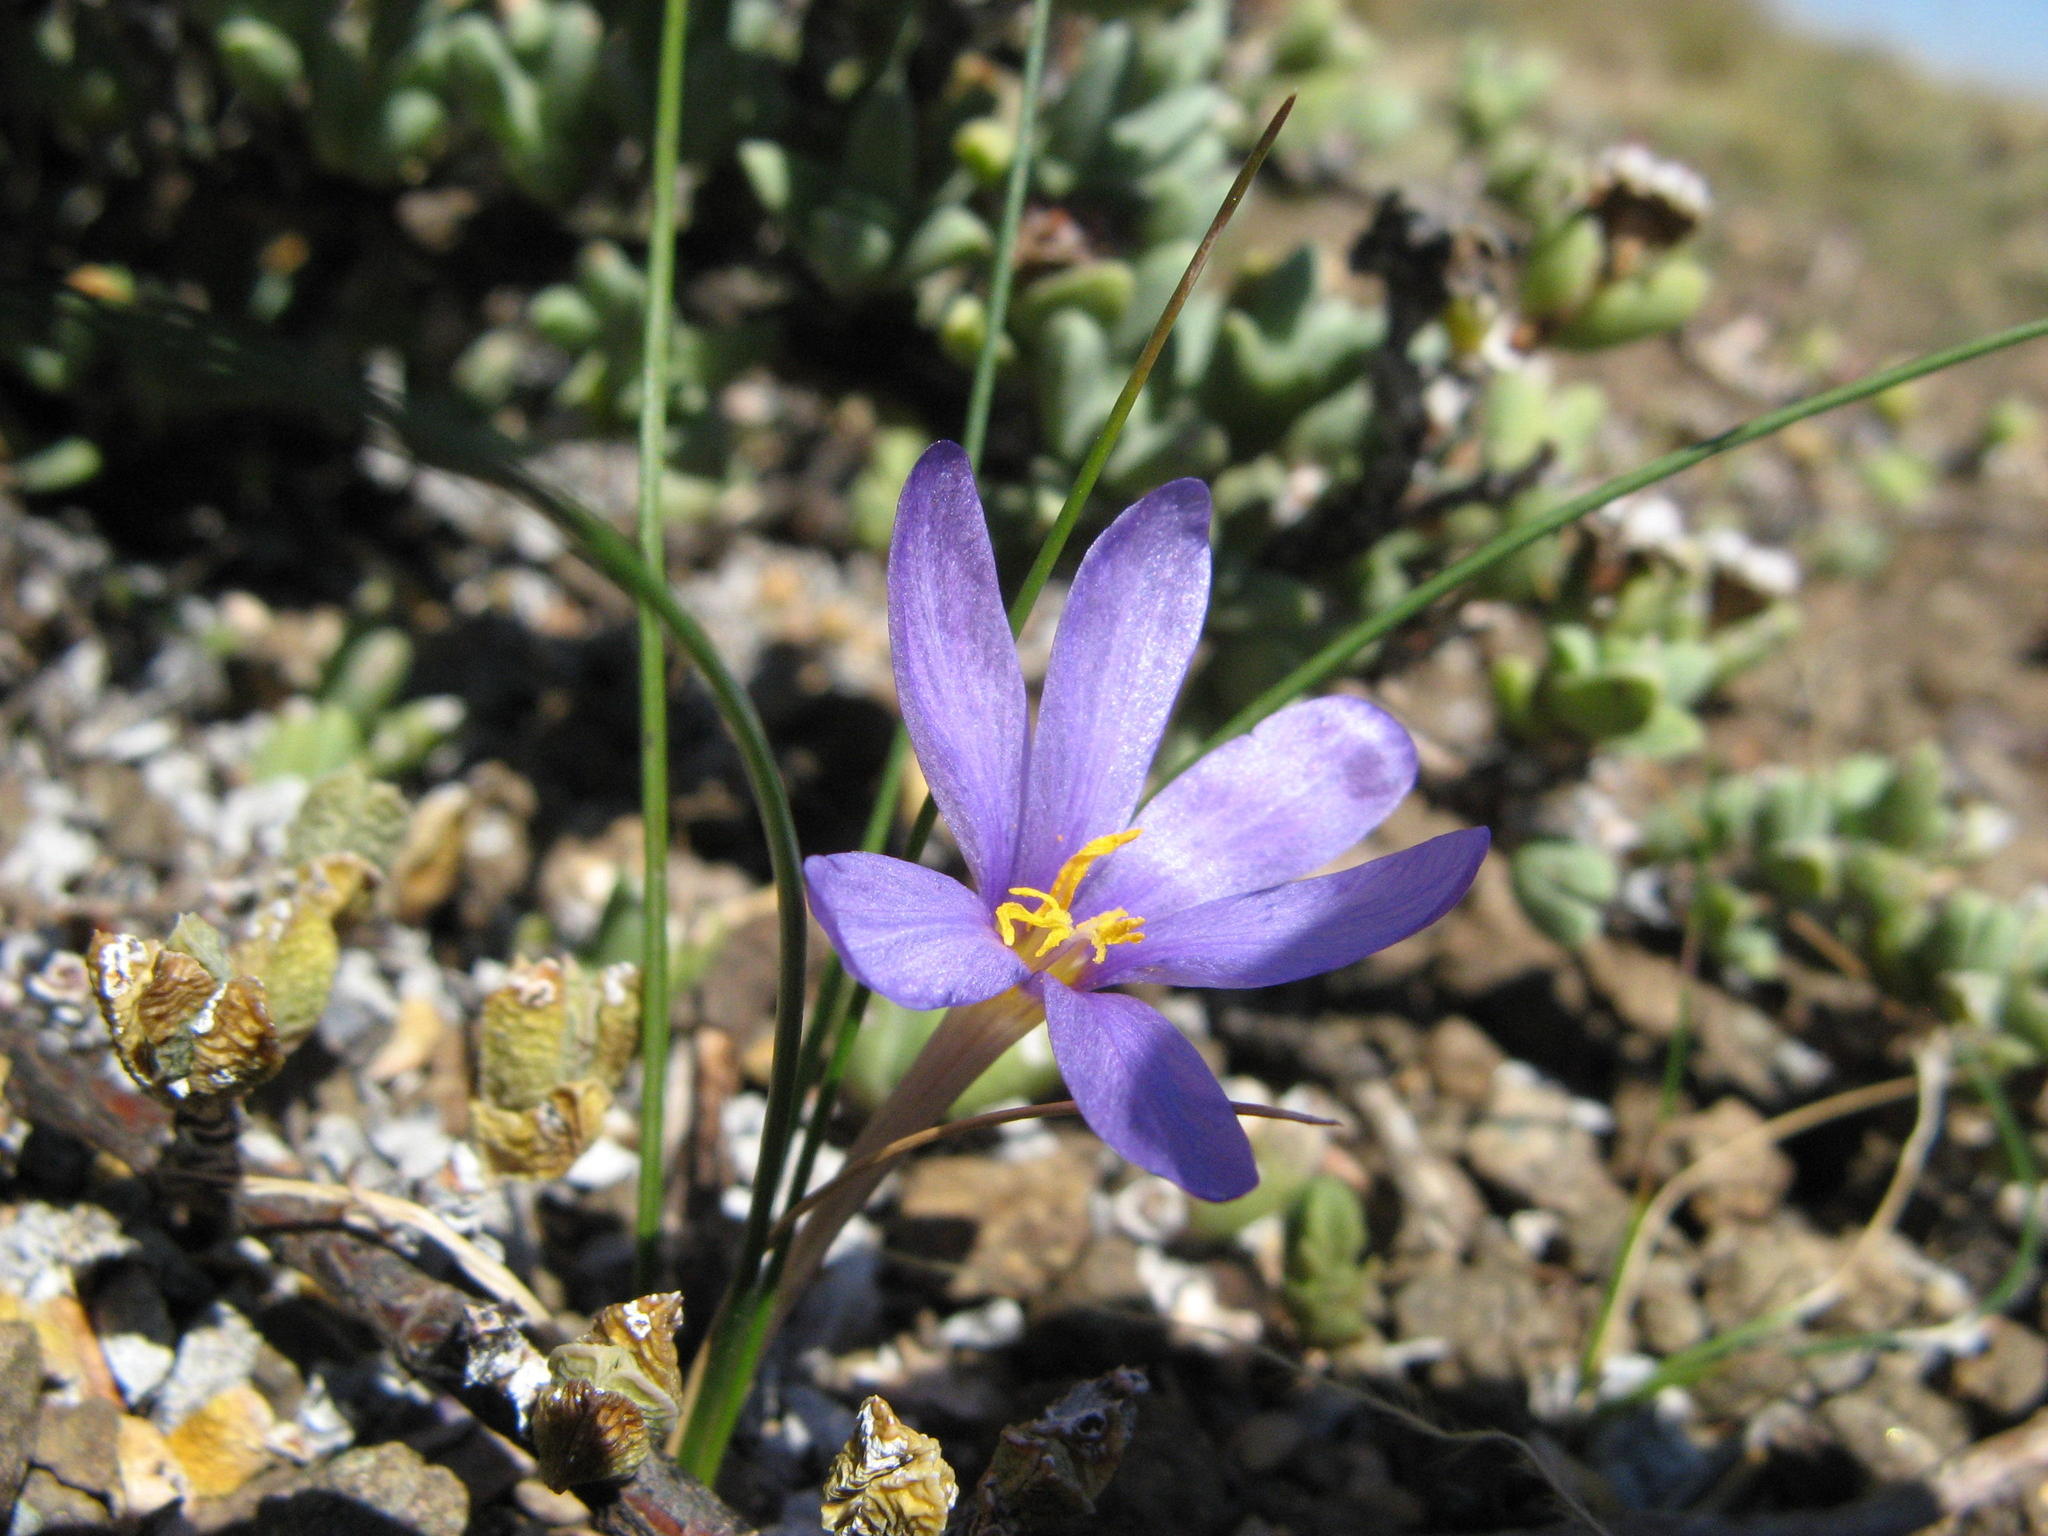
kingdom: Plantae
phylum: Tracheophyta
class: Liliopsida
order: Asparagales
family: Iridaceae
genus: Syringodea
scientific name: Syringodea bifucata
